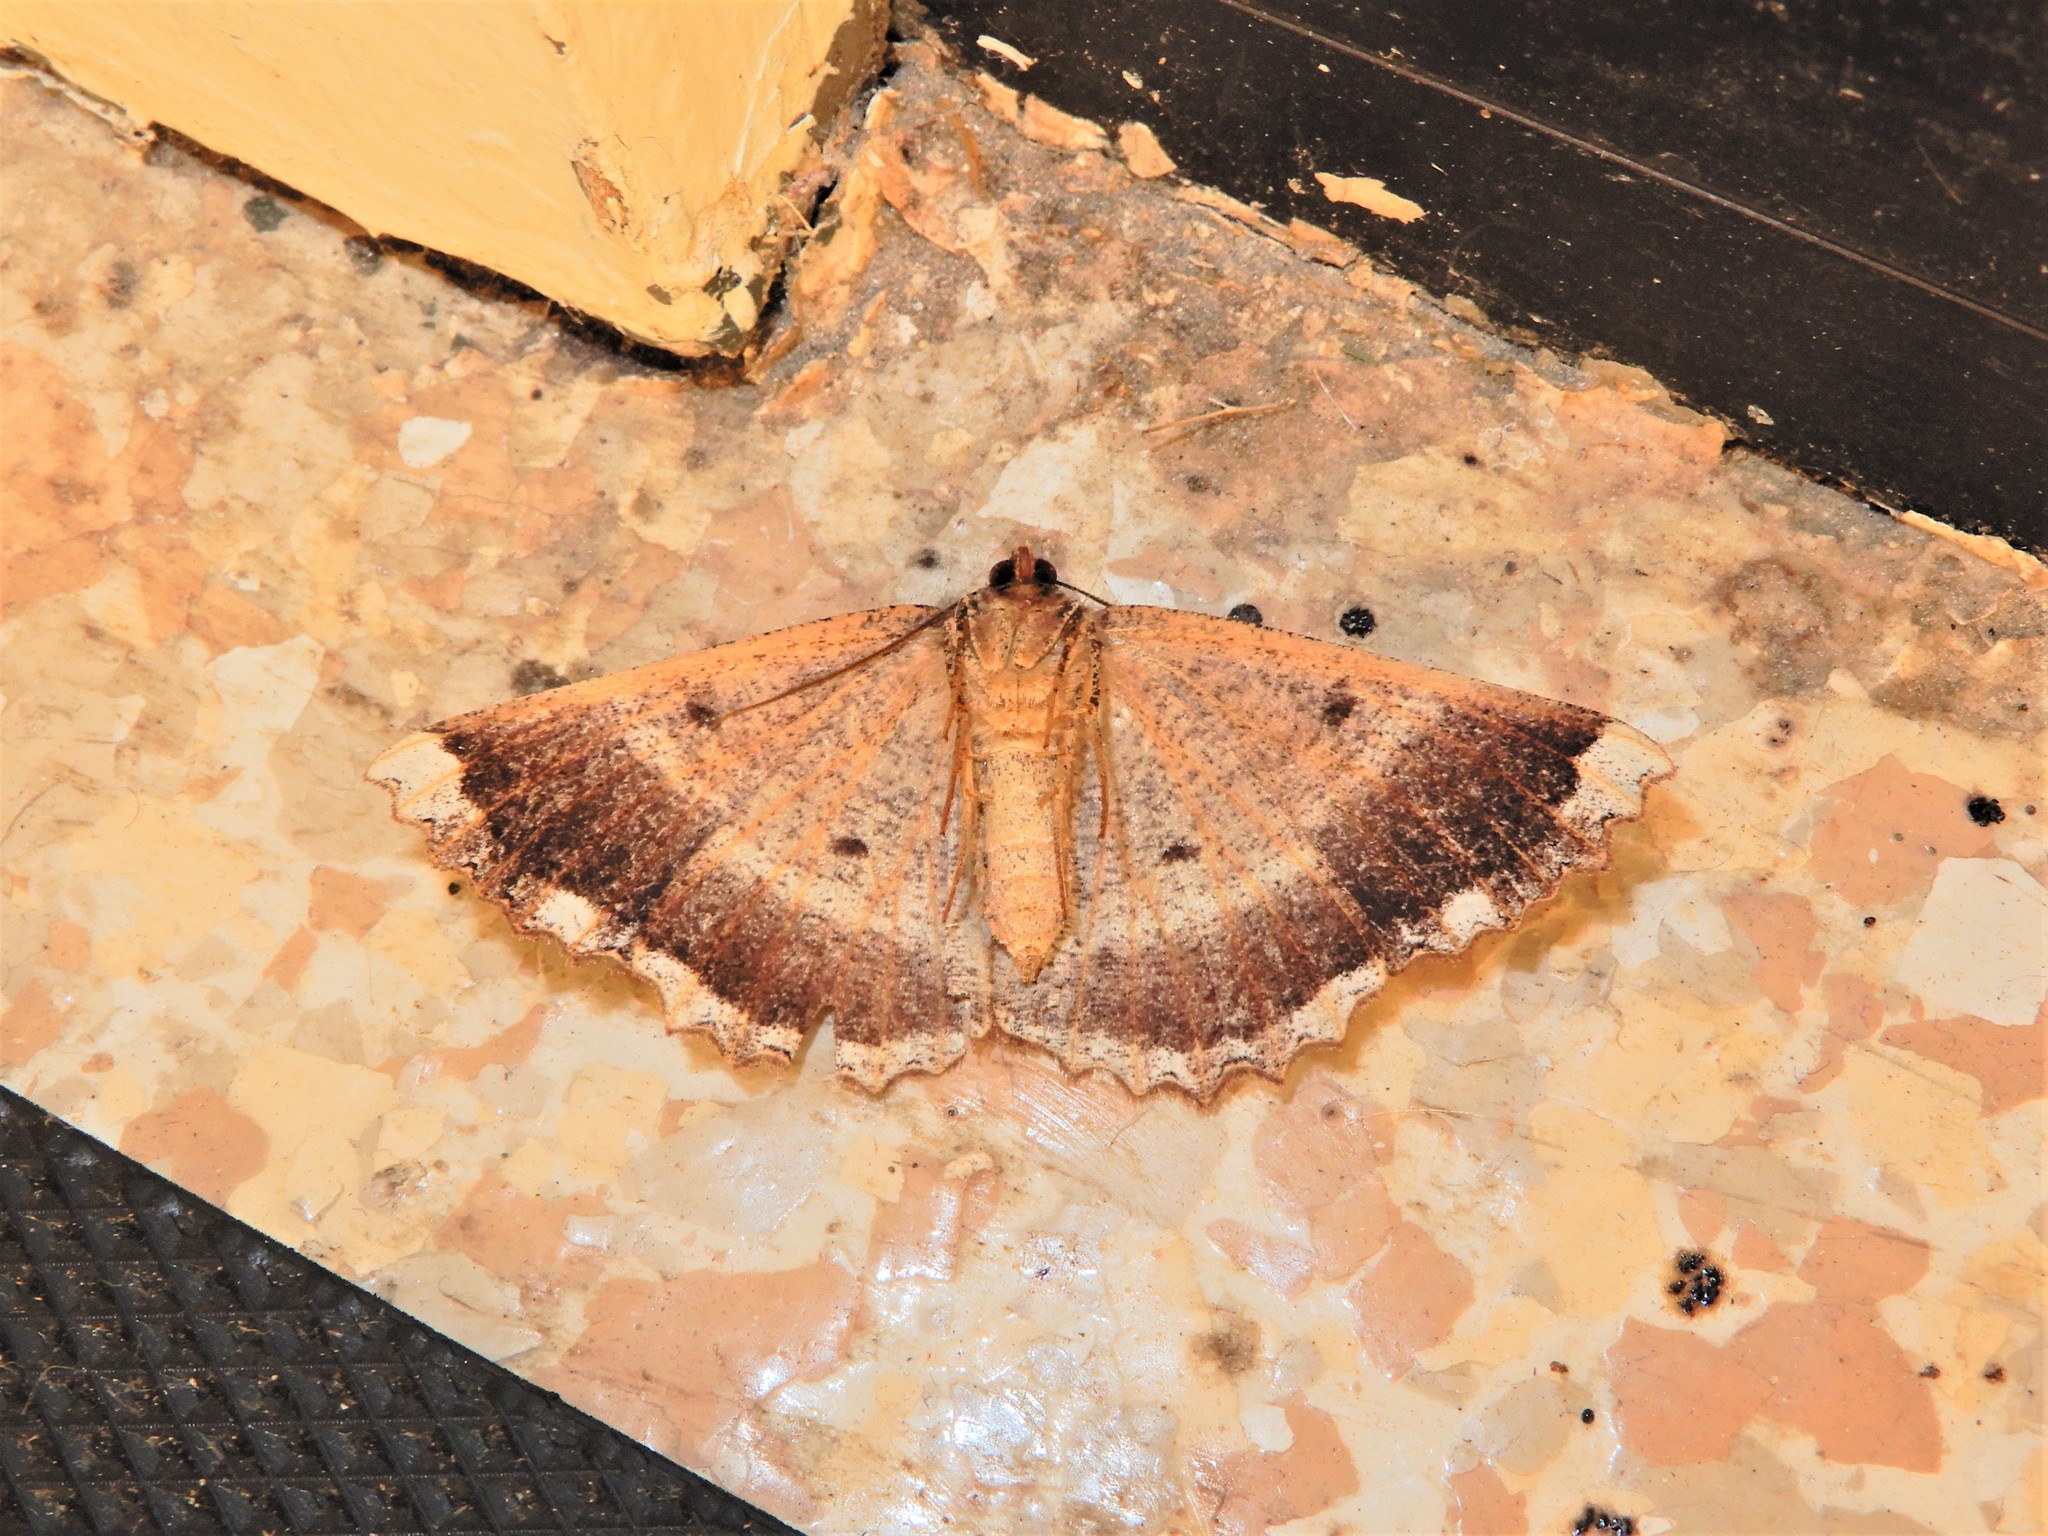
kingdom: Animalia
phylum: Arthropoda
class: Insecta
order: Lepidoptera
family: Geometridae
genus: Gellonia
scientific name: Gellonia dejectaria
